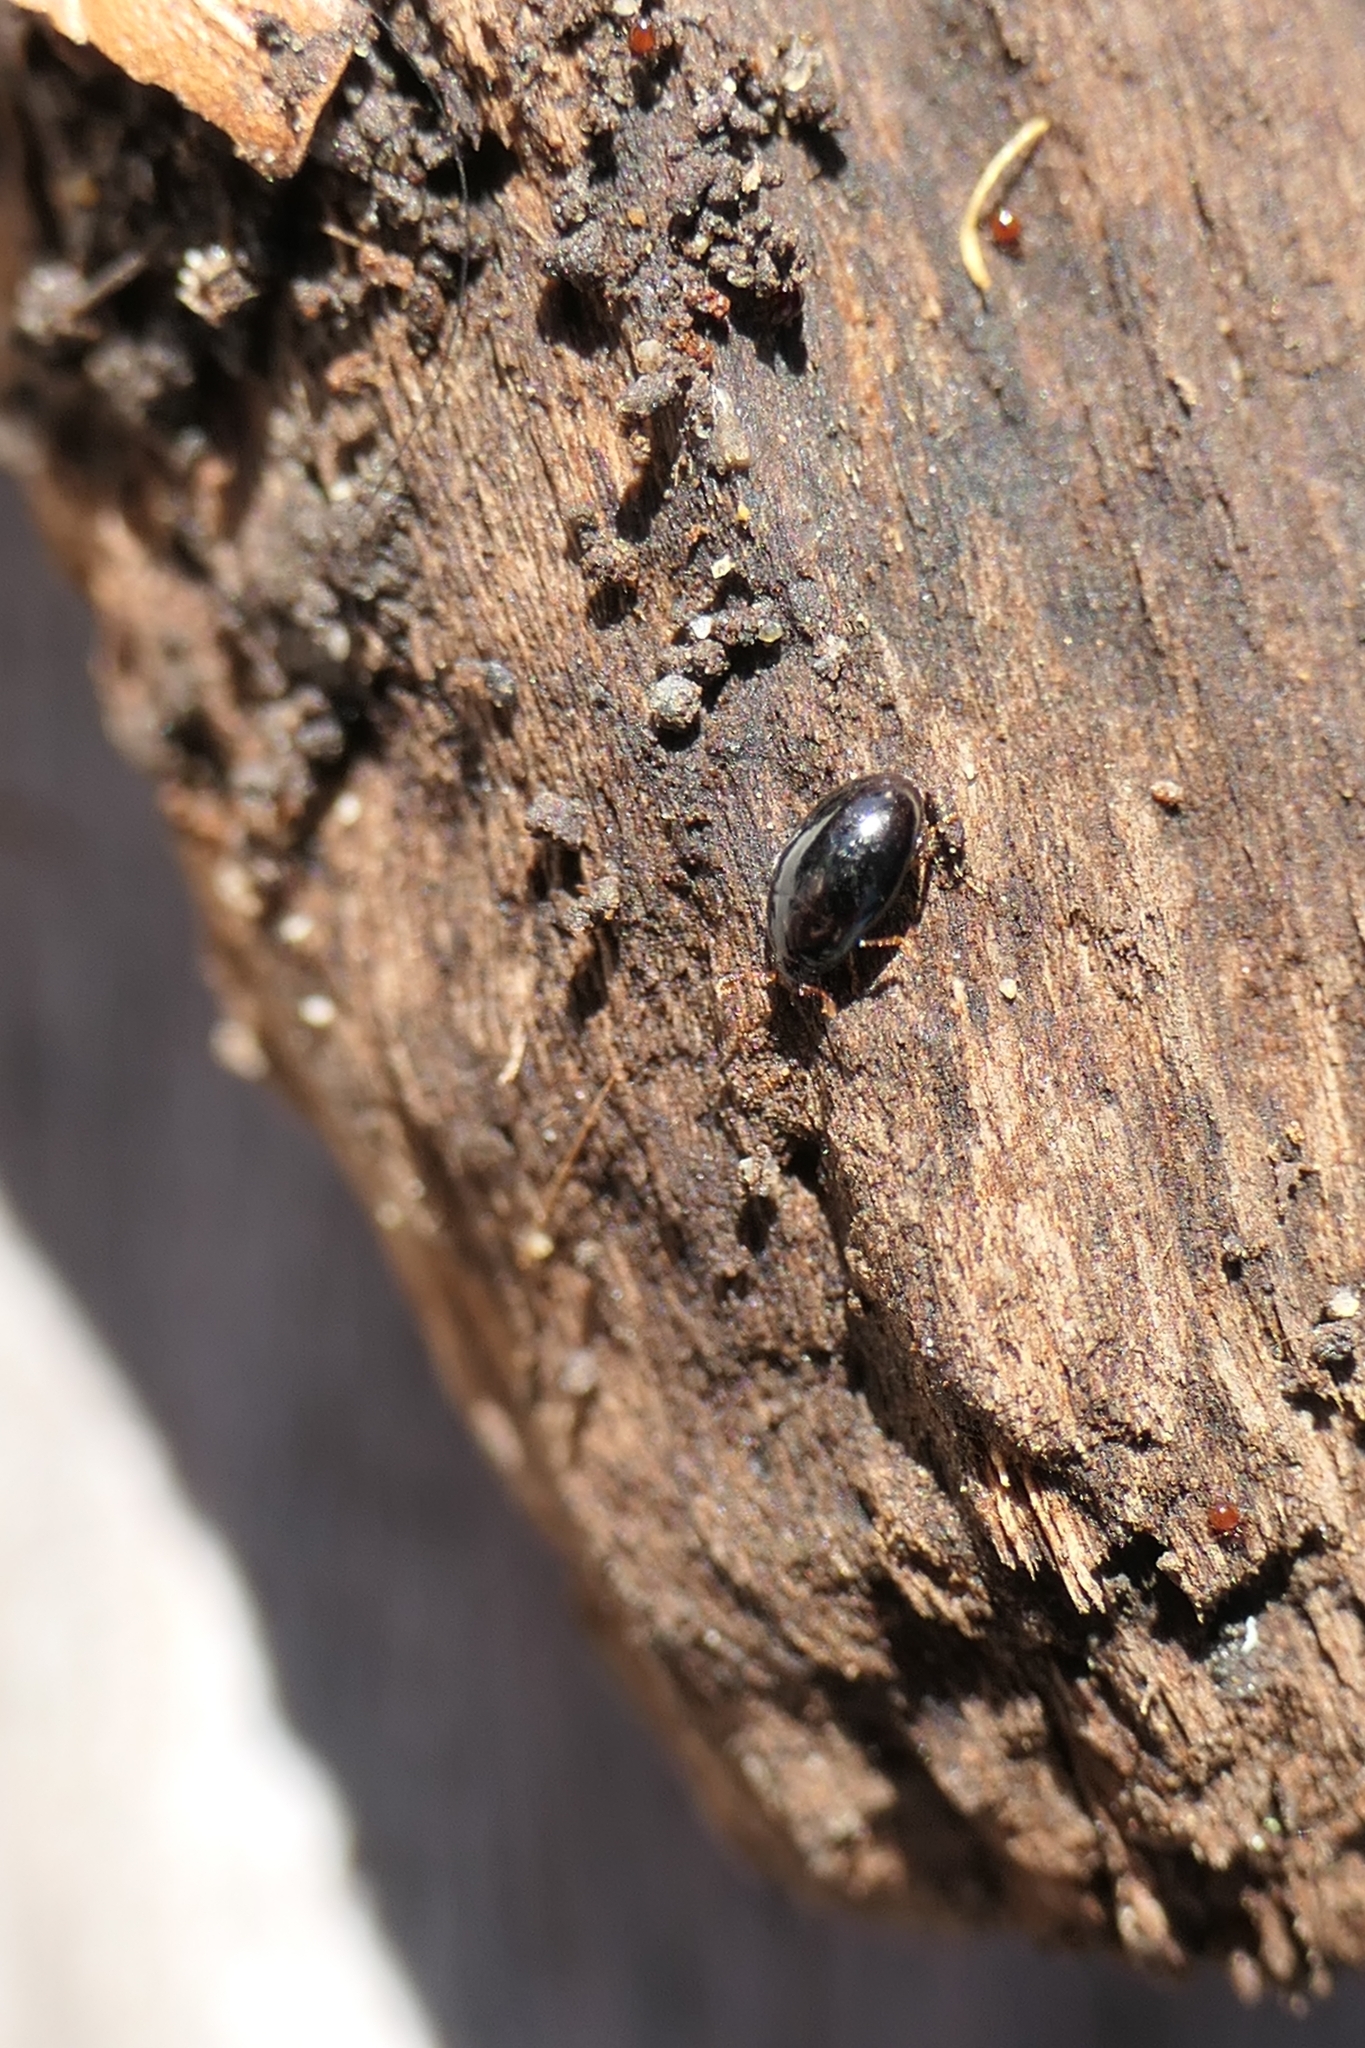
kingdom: Animalia
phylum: Arthropoda
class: Insecta
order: Coleoptera
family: Cerylonidae
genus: Hypodacnella
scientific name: Hypodacnella
